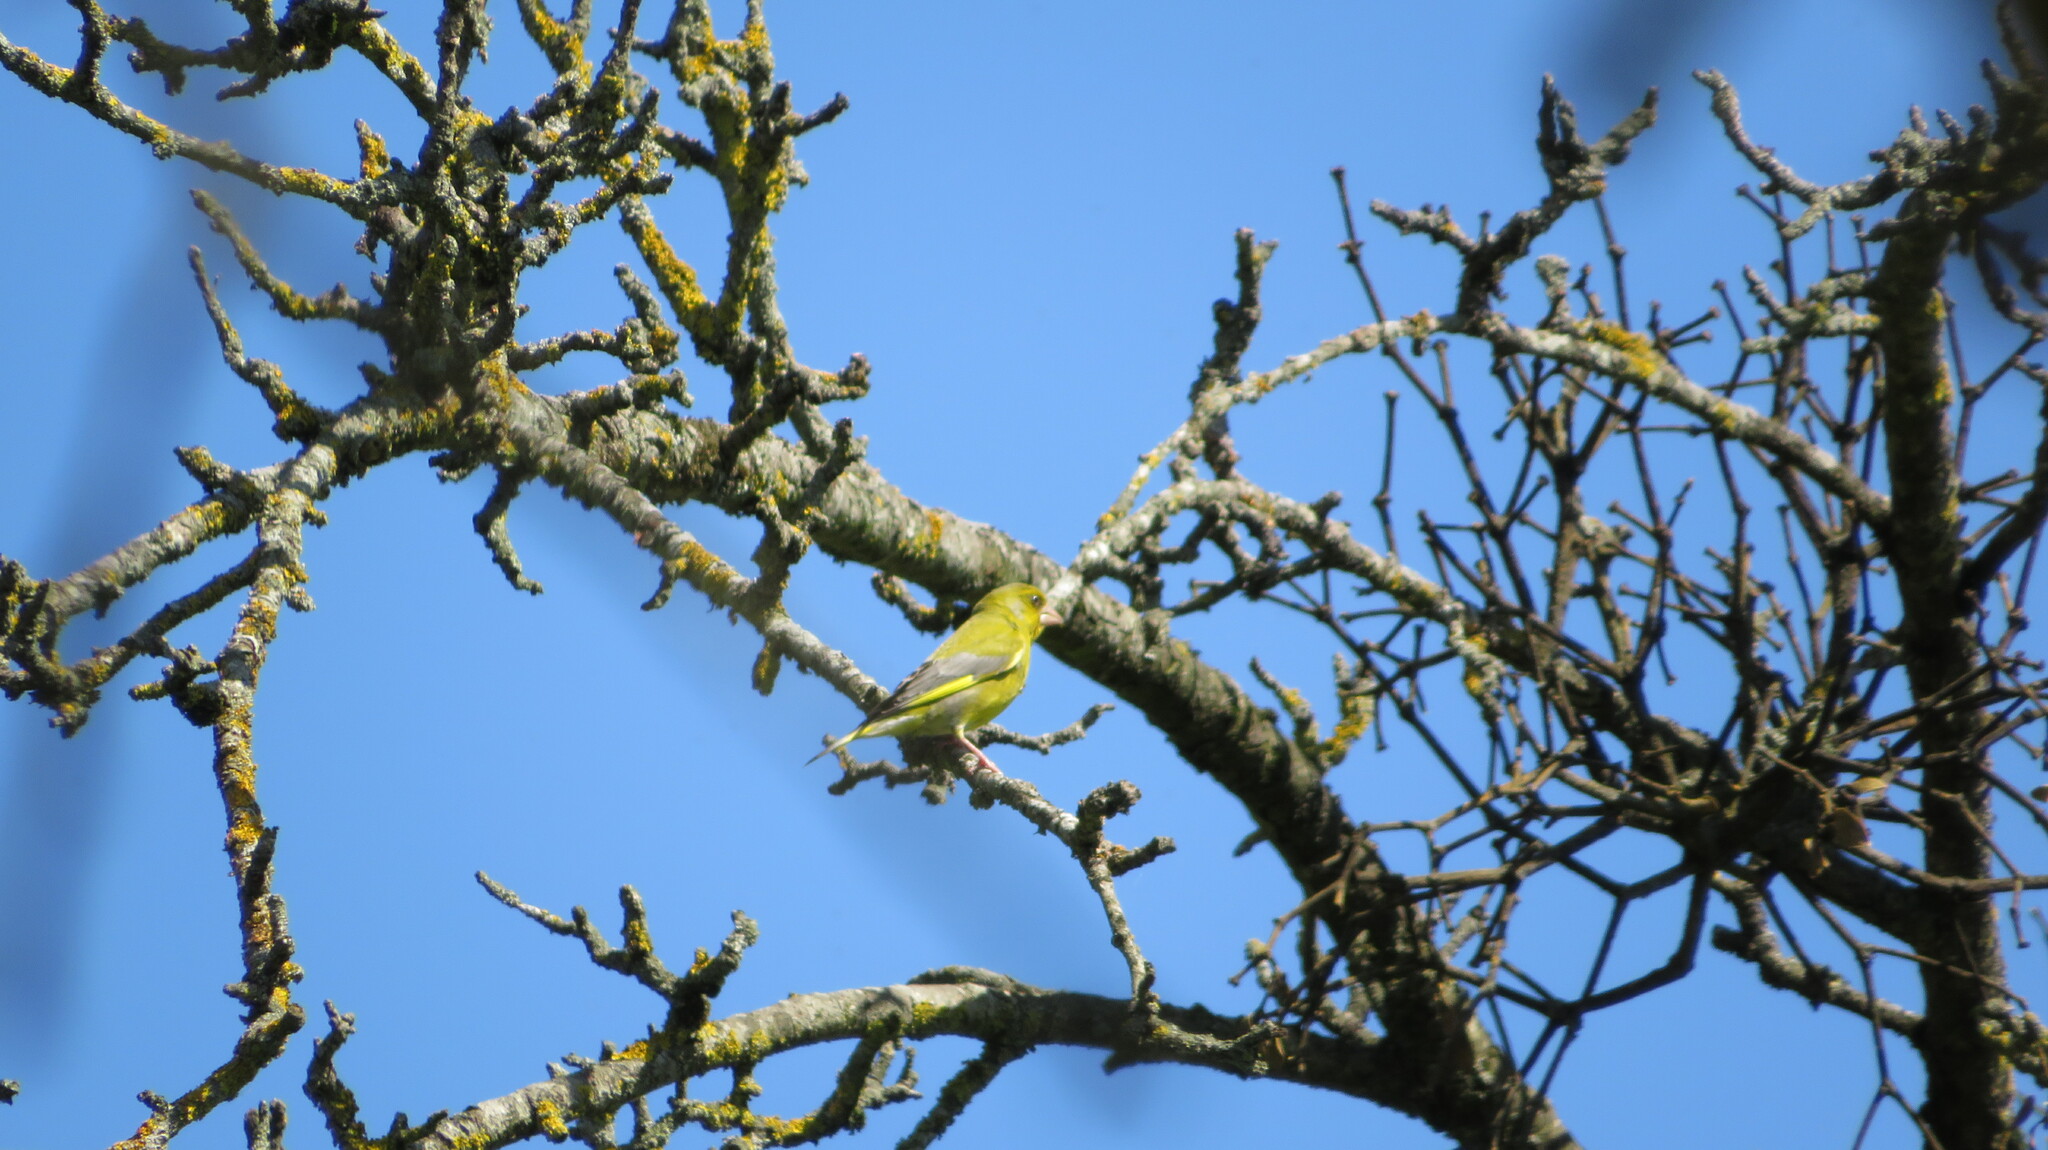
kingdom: Plantae
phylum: Tracheophyta
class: Liliopsida
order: Poales
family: Poaceae
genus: Chloris
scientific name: Chloris chloris
